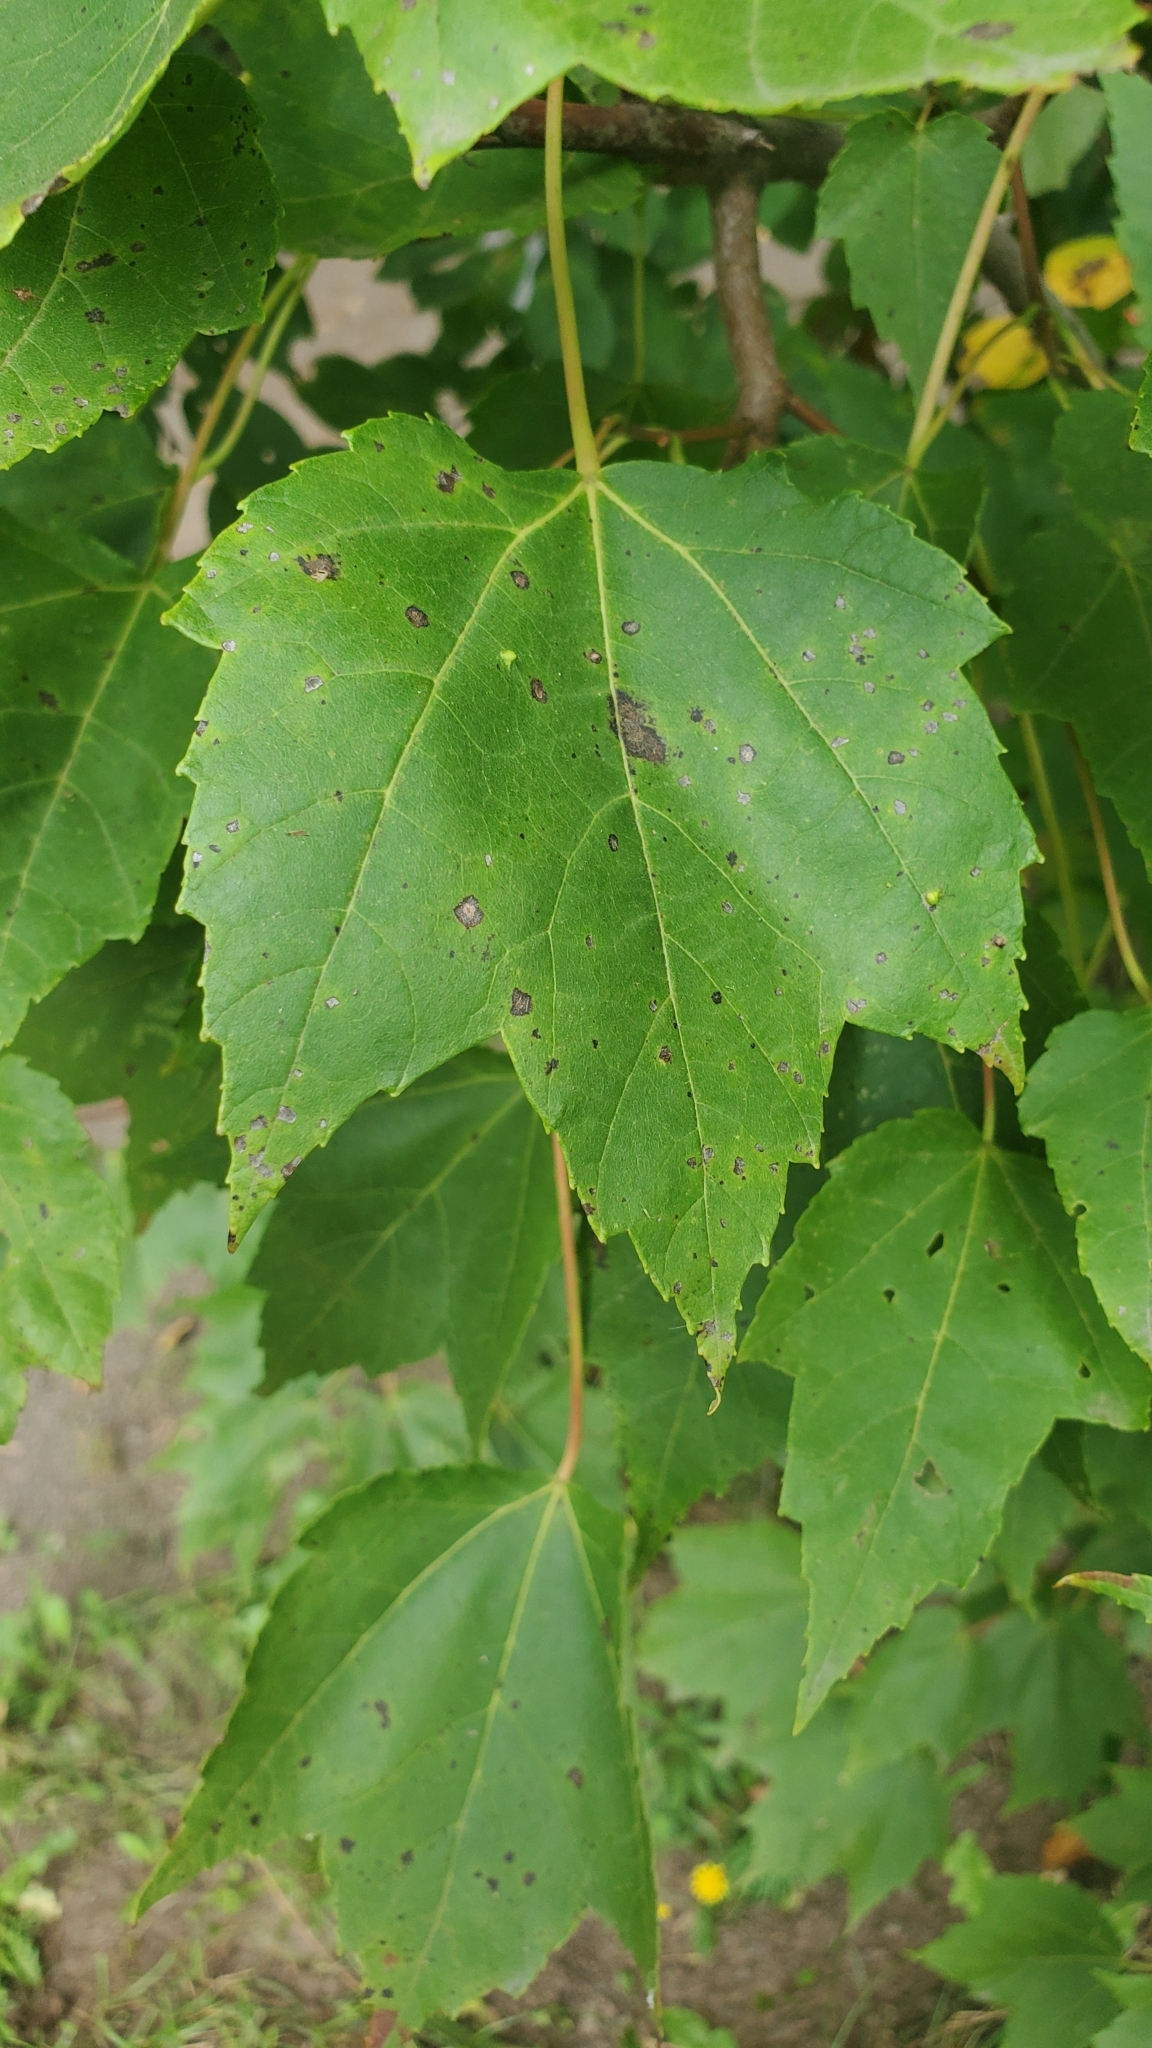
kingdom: Plantae
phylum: Tracheophyta
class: Magnoliopsida
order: Sapindales
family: Sapindaceae
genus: Acer
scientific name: Acer rubrum
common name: Red maple
